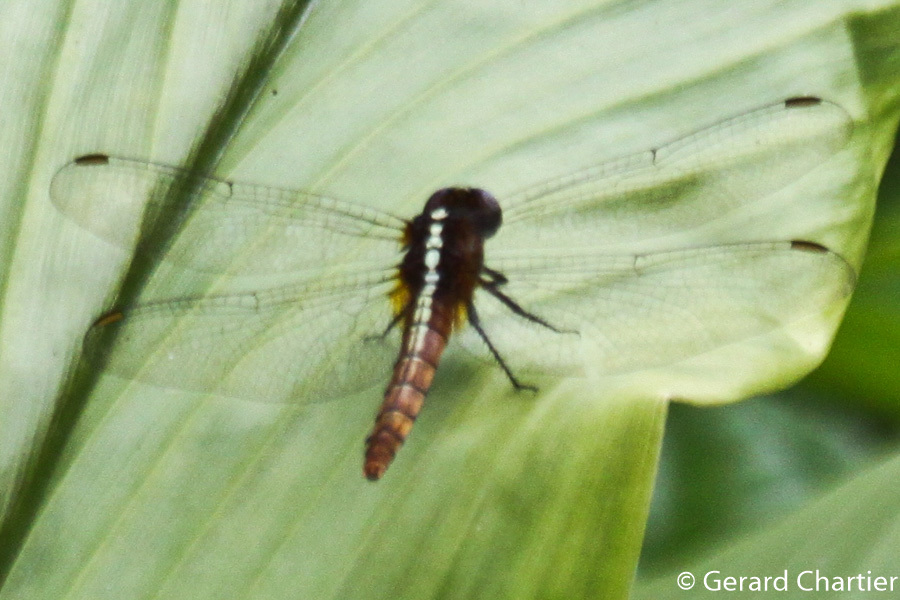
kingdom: Animalia
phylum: Arthropoda
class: Insecta
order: Odonata
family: Libellulidae
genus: Rhodothemis
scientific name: Rhodothemis rufa
